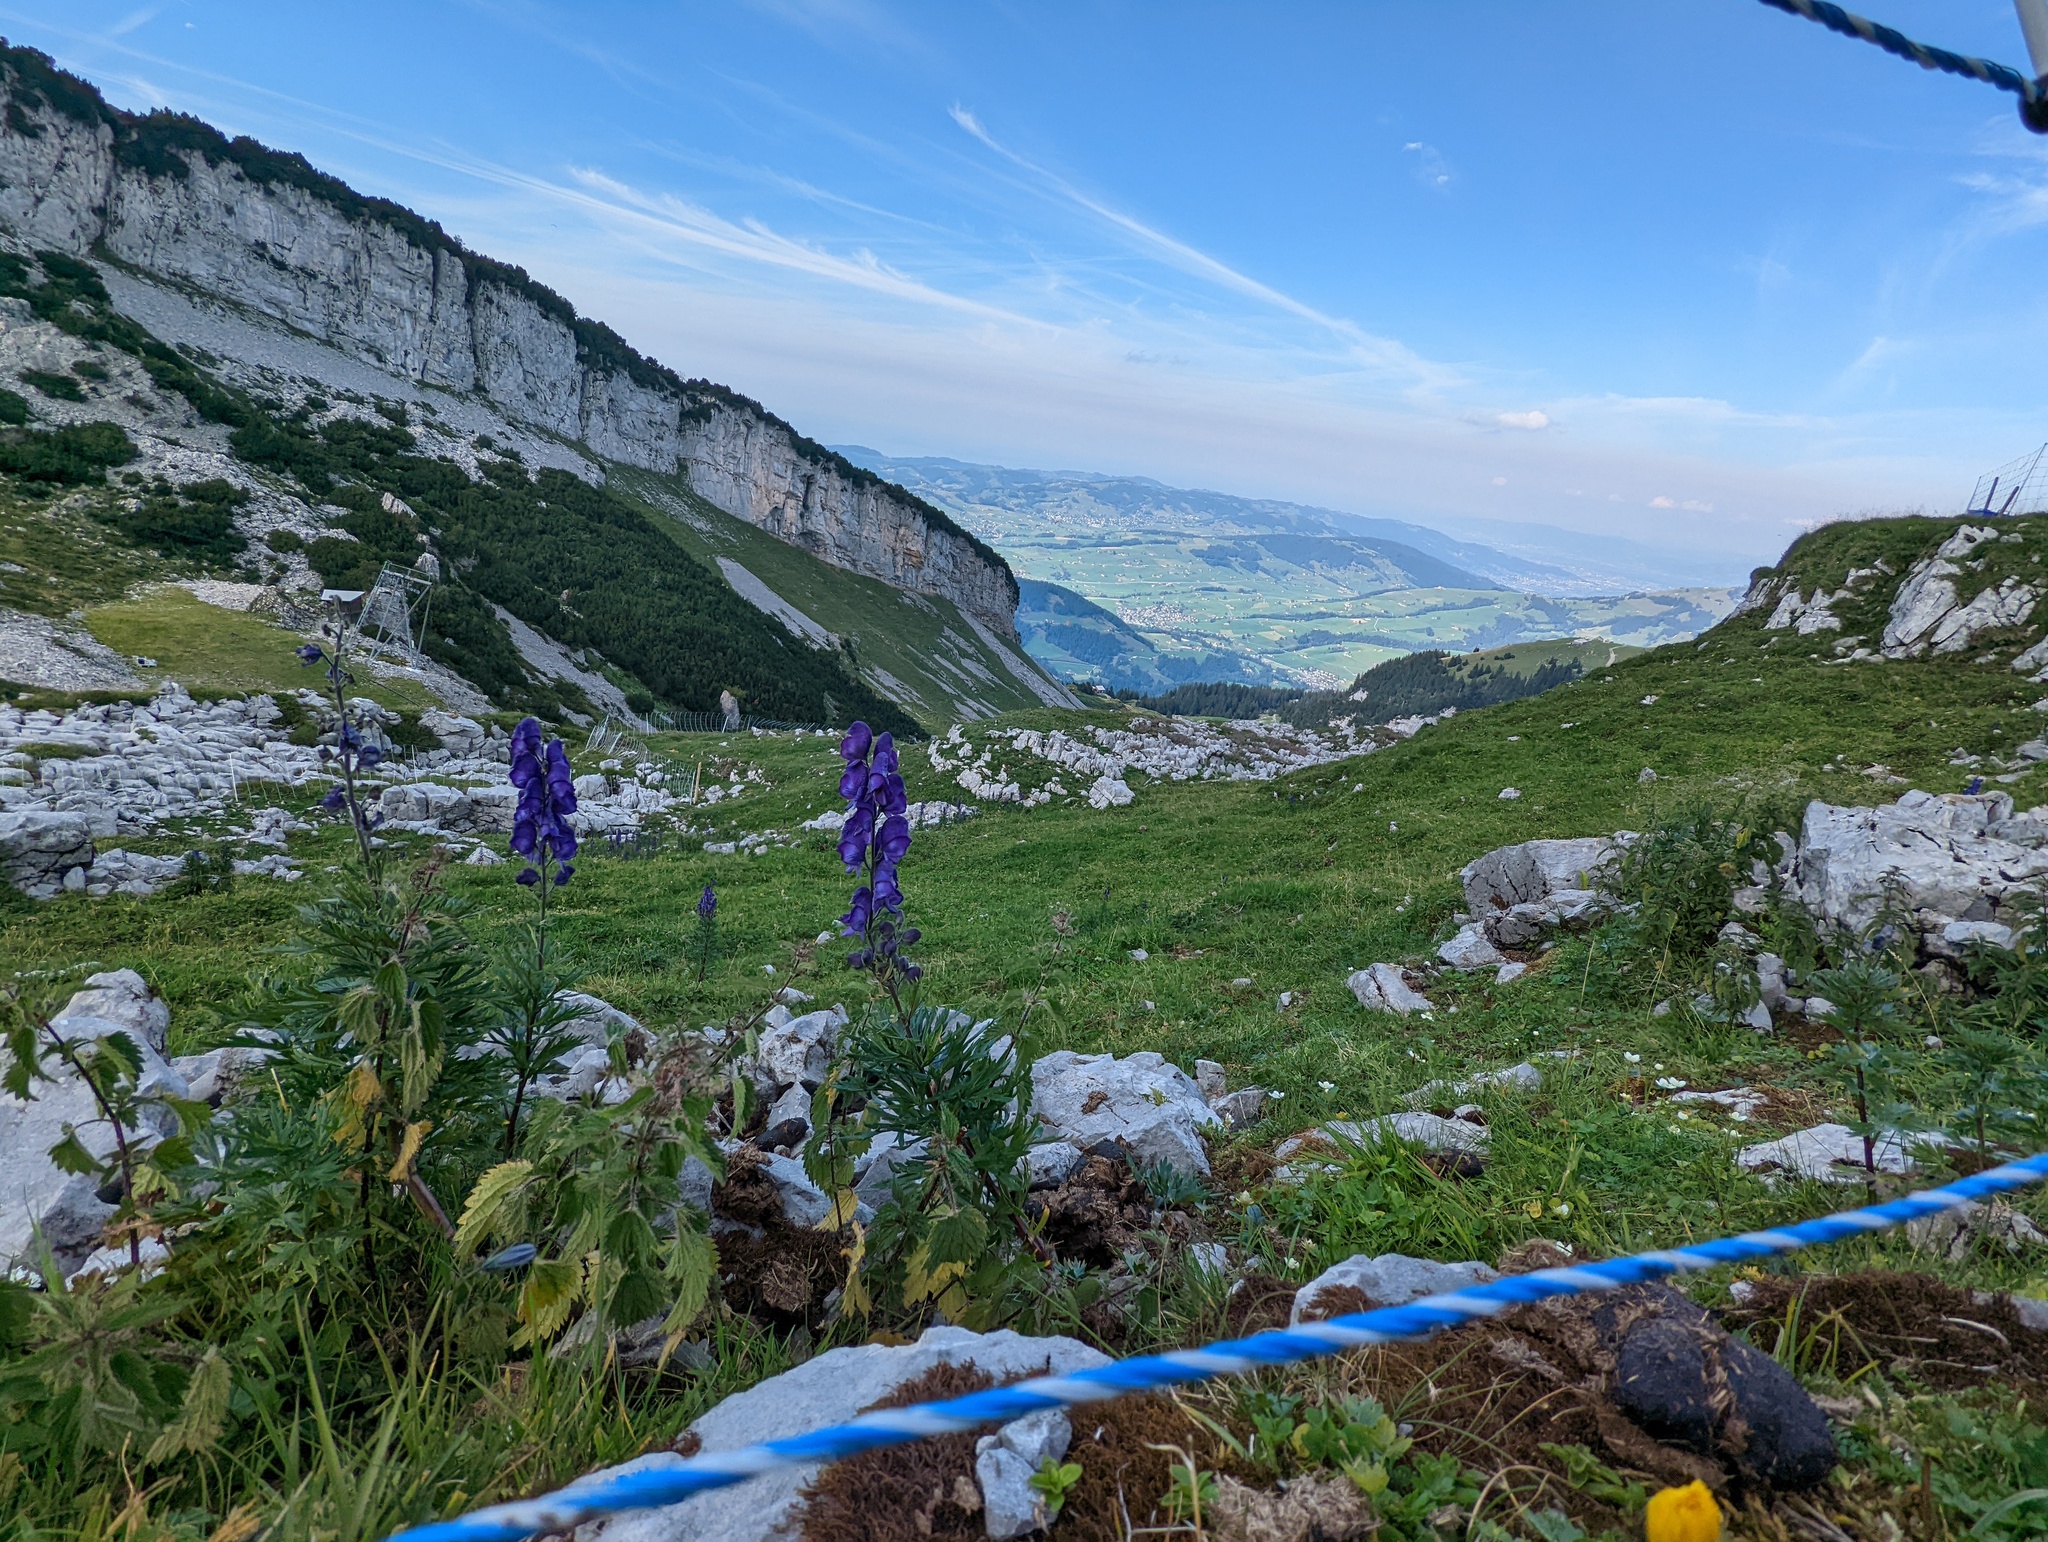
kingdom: Plantae
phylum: Tracheophyta
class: Magnoliopsida
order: Ranunculales
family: Ranunculaceae
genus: Aconitum
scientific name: Aconitum napellus
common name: Garden monkshood
